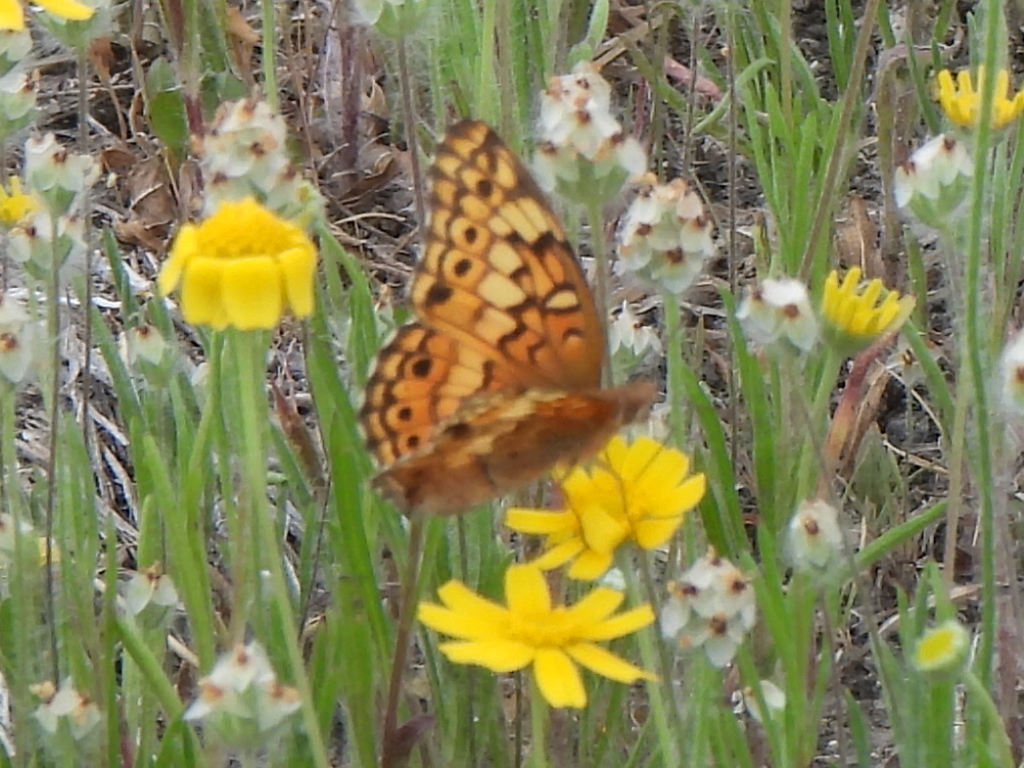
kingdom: Animalia
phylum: Arthropoda
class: Insecta
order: Lepidoptera
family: Nymphalidae
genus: Euptoieta
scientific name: Euptoieta claudia
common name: Variegated fritillary
